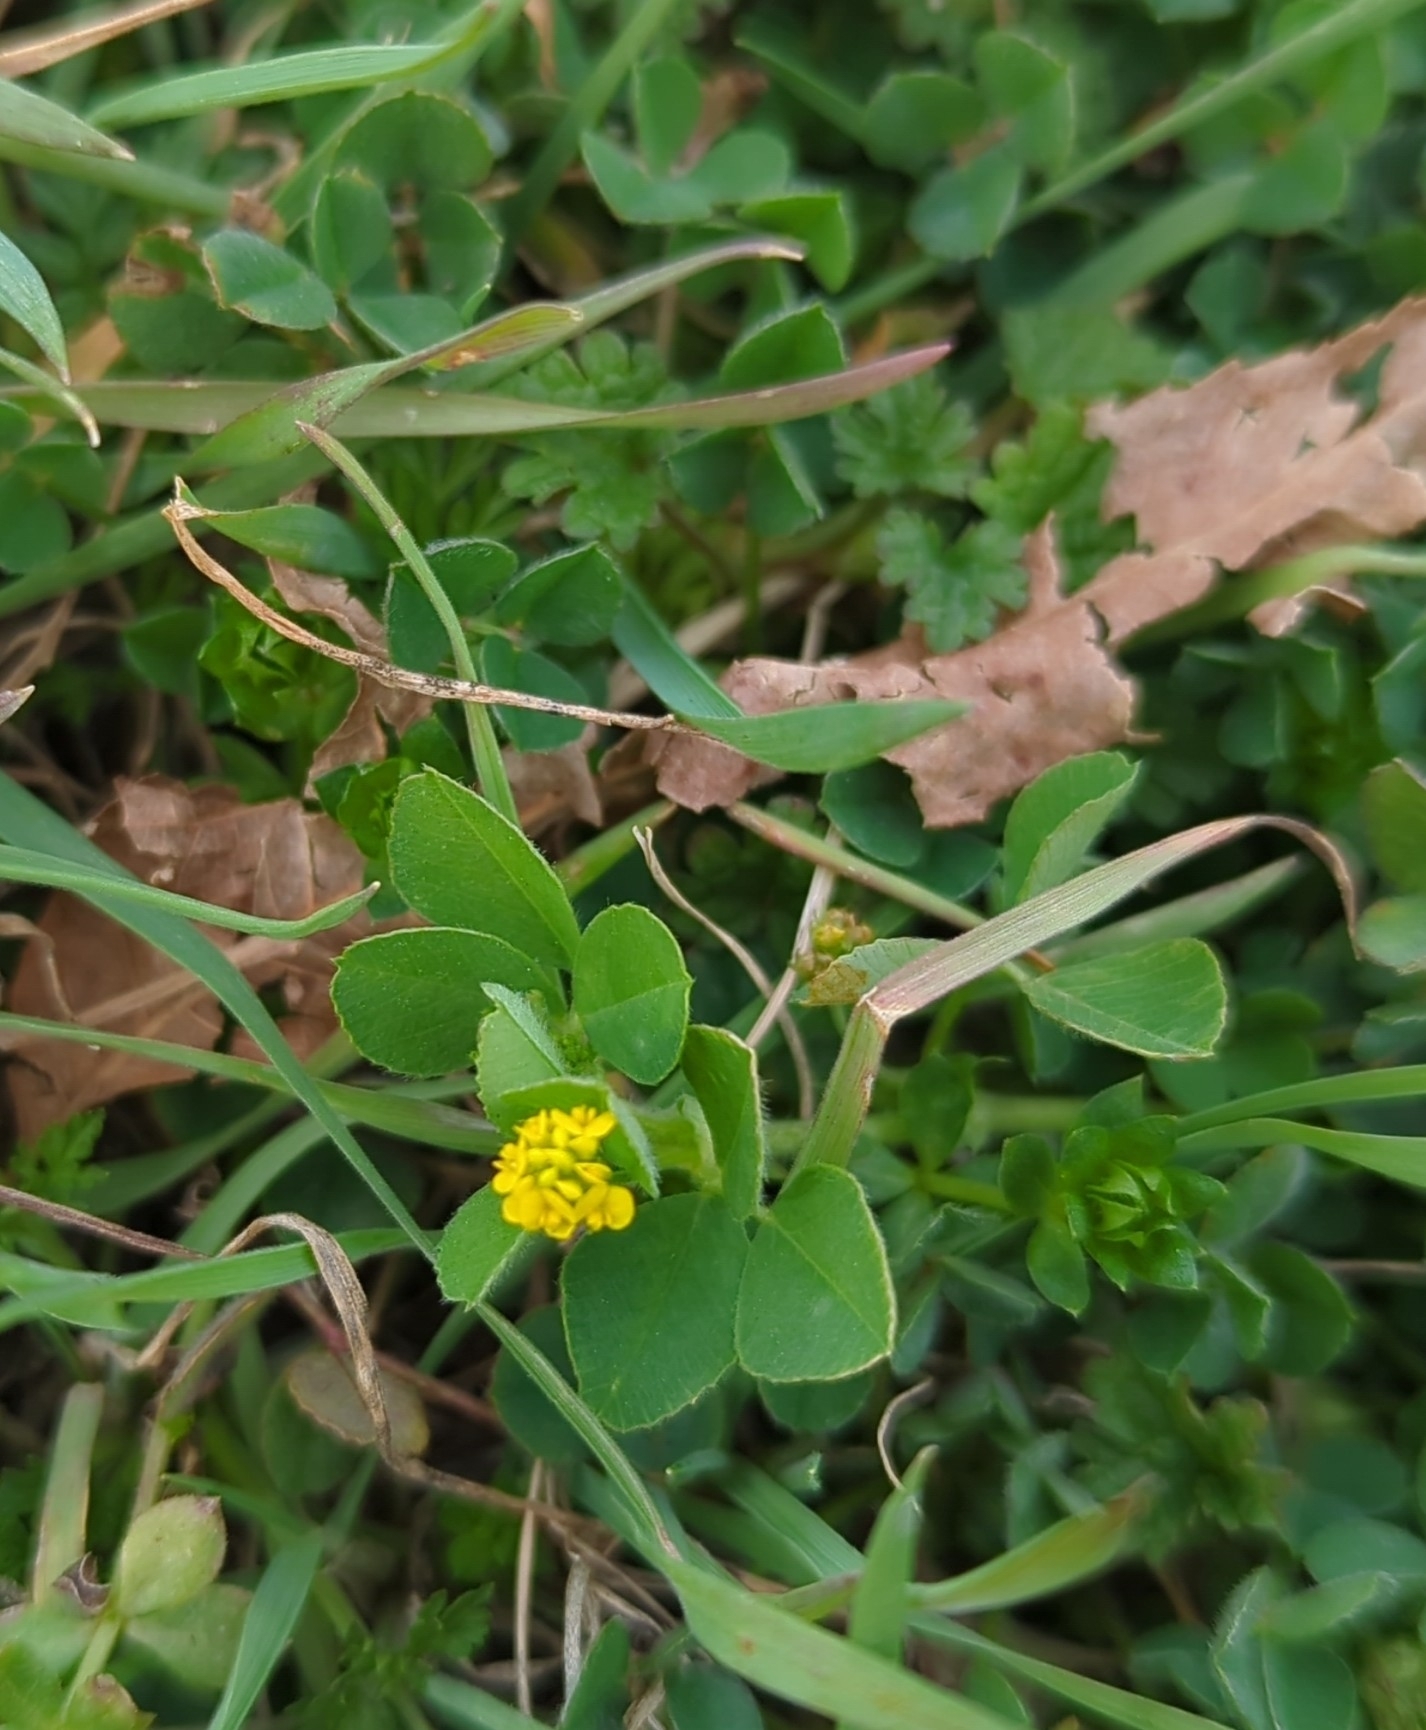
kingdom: Plantae
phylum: Tracheophyta
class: Magnoliopsida
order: Fabales
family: Fabaceae
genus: Medicago
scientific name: Medicago lupulina
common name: Black medick
